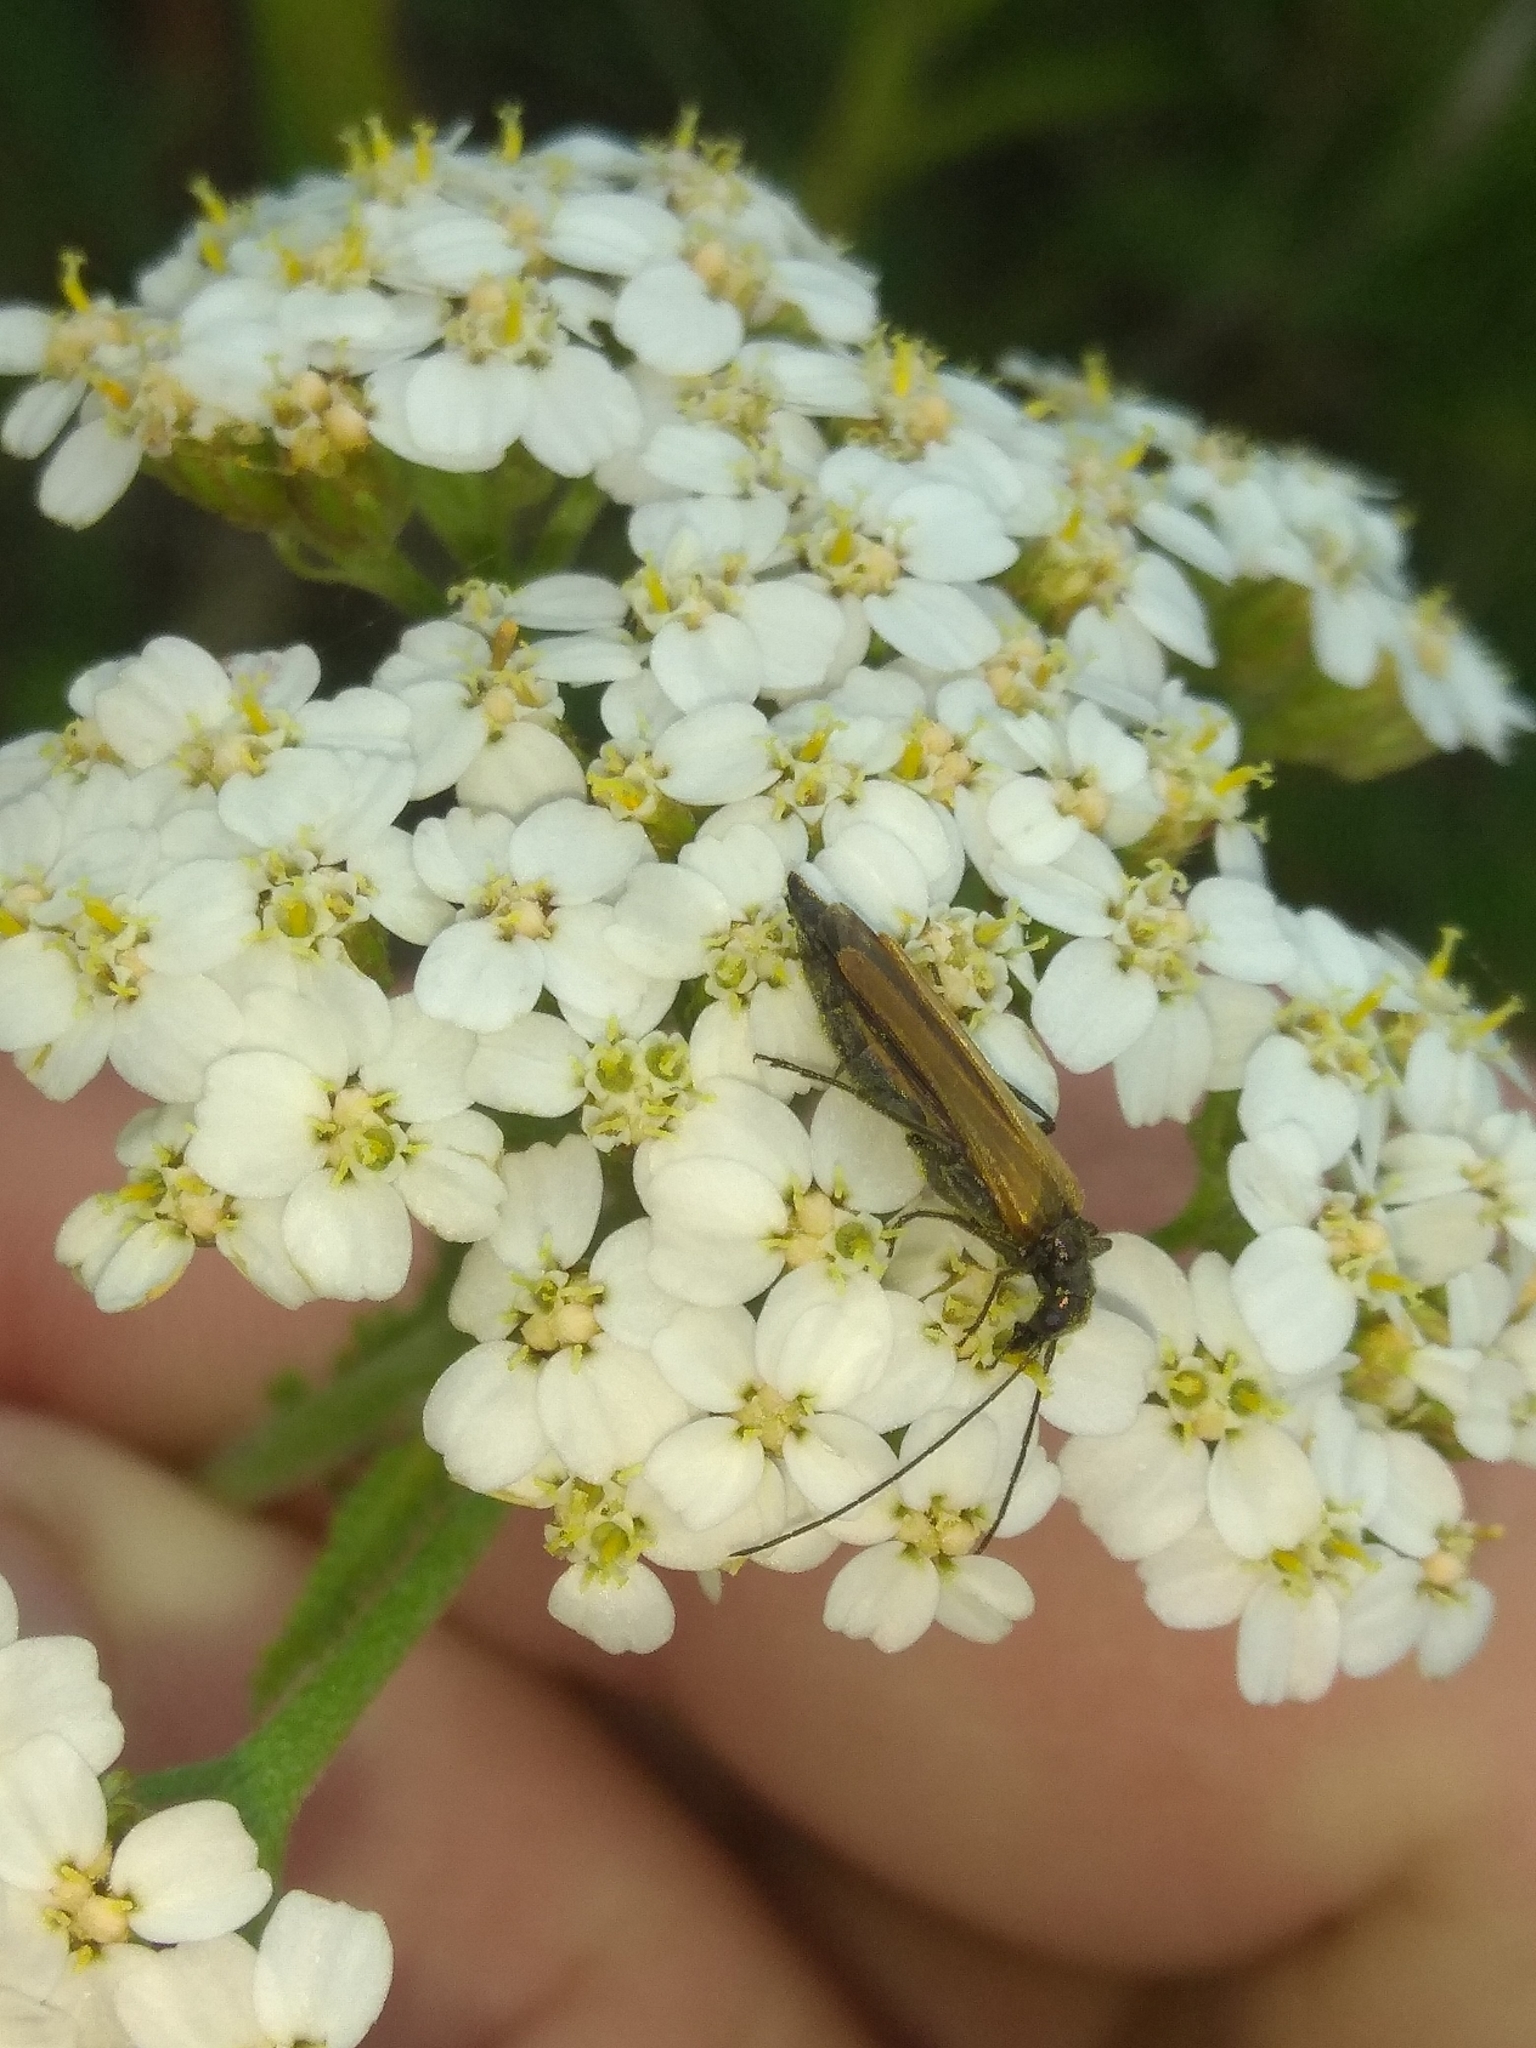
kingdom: Animalia
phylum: Arthropoda
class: Insecta
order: Coleoptera
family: Oedemeridae
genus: Oedemera
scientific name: Oedemera femorata
